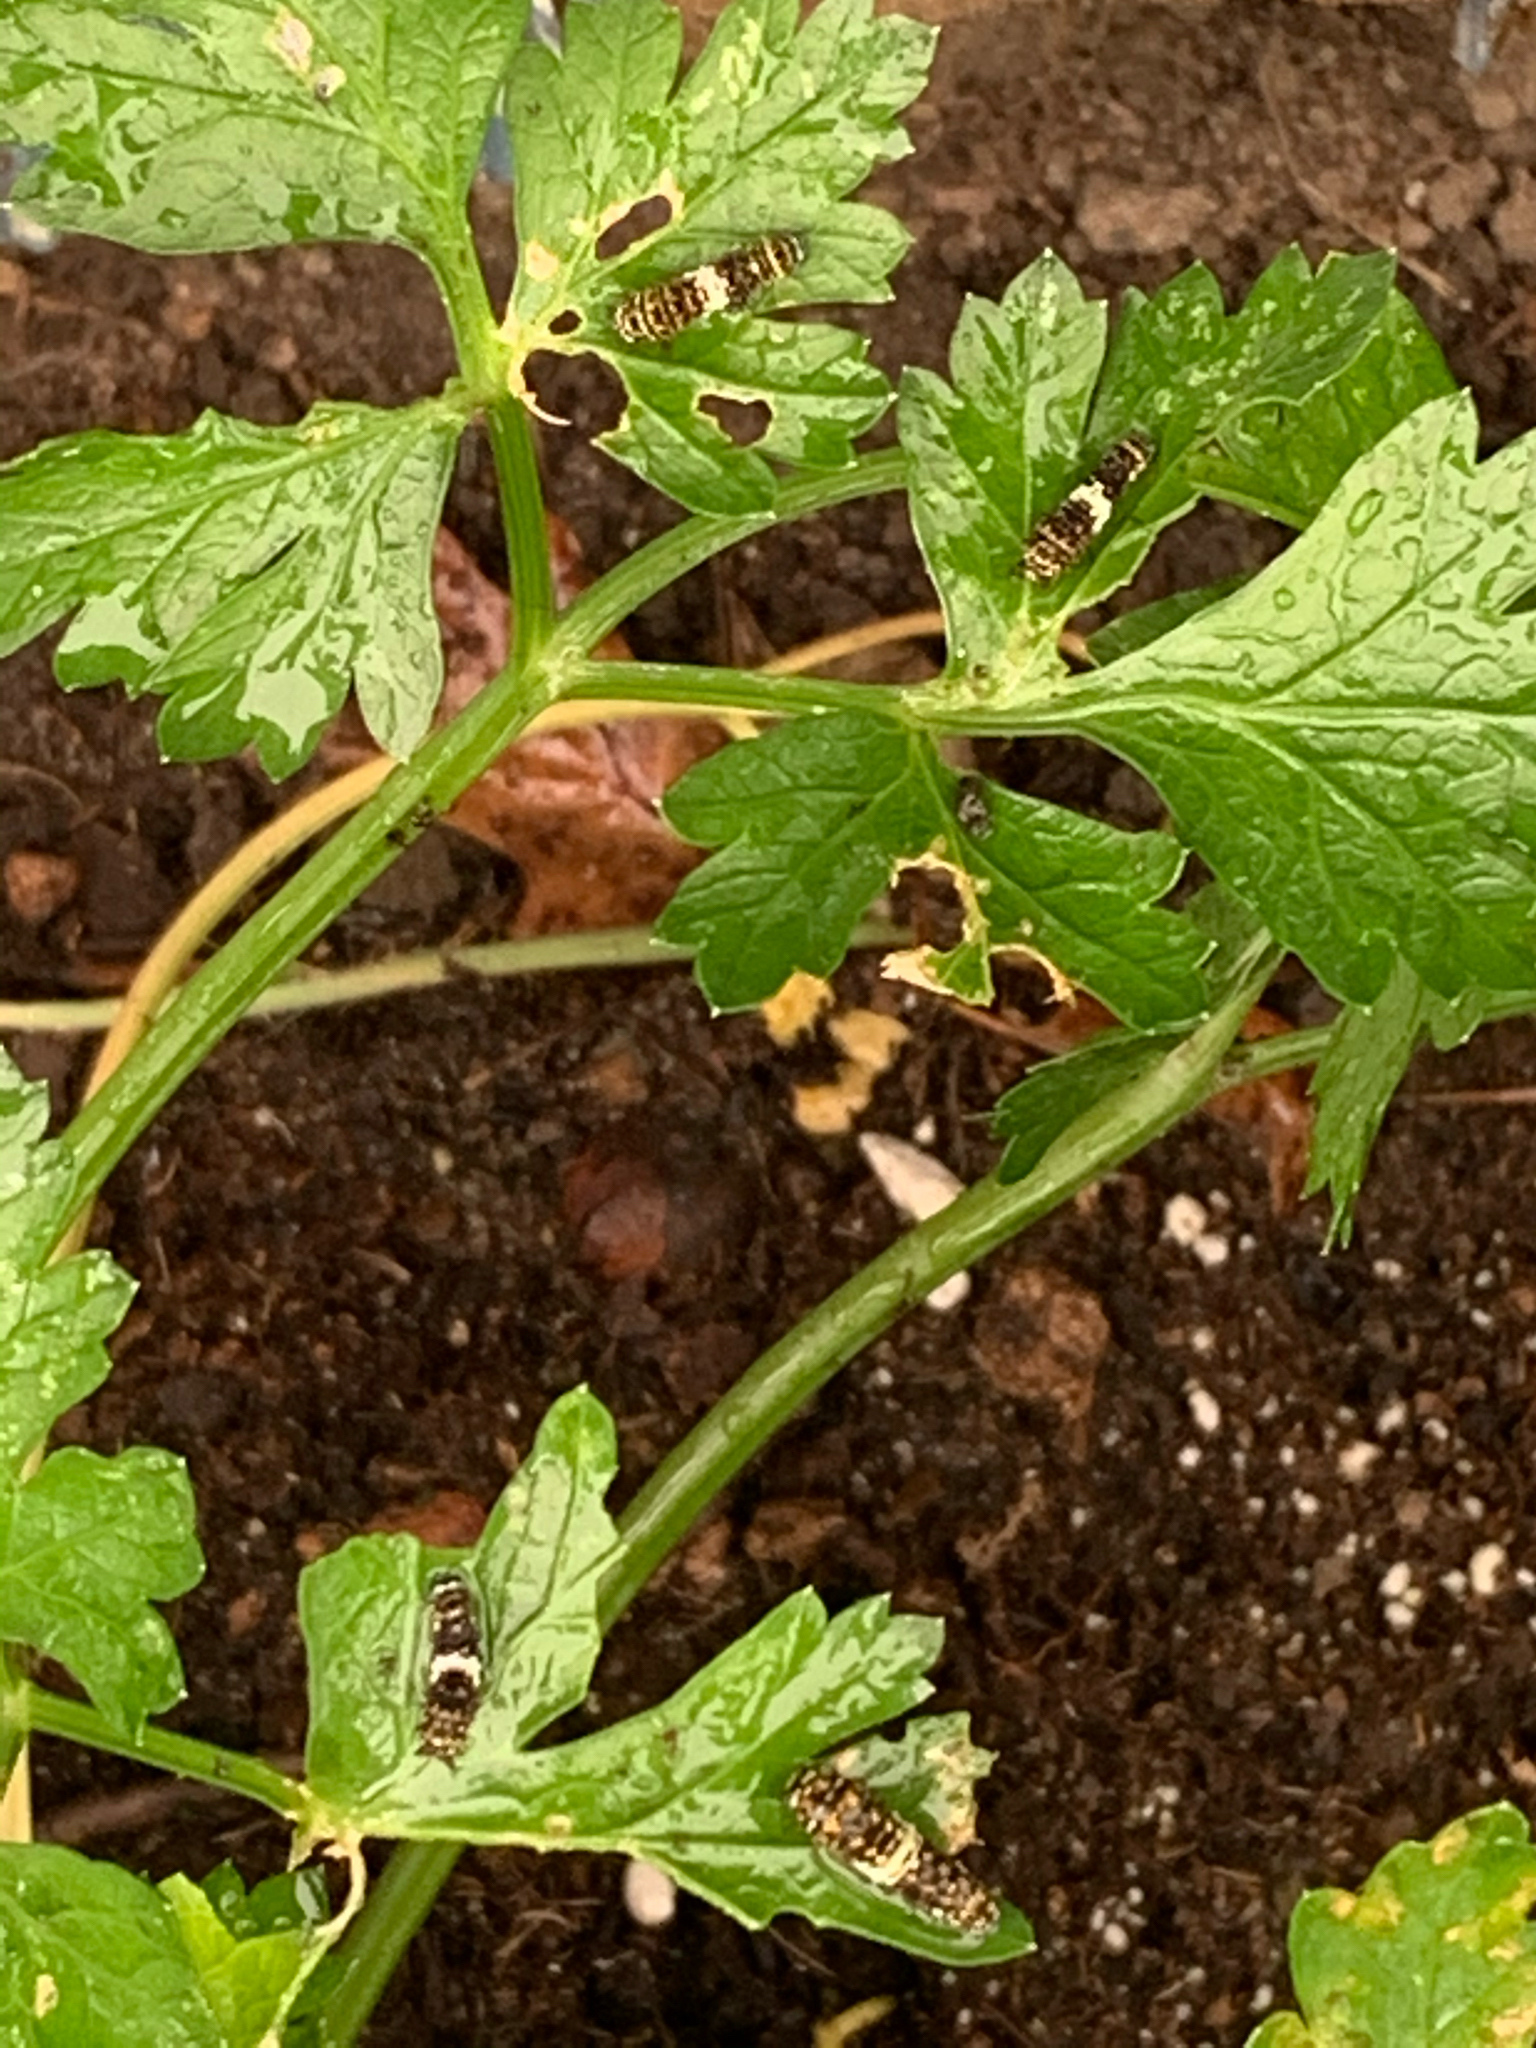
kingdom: Animalia
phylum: Arthropoda
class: Insecta
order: Lepidoptera
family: Papilionidae
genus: Papilio
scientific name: Papilio polyxenes
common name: Black swallowtail
